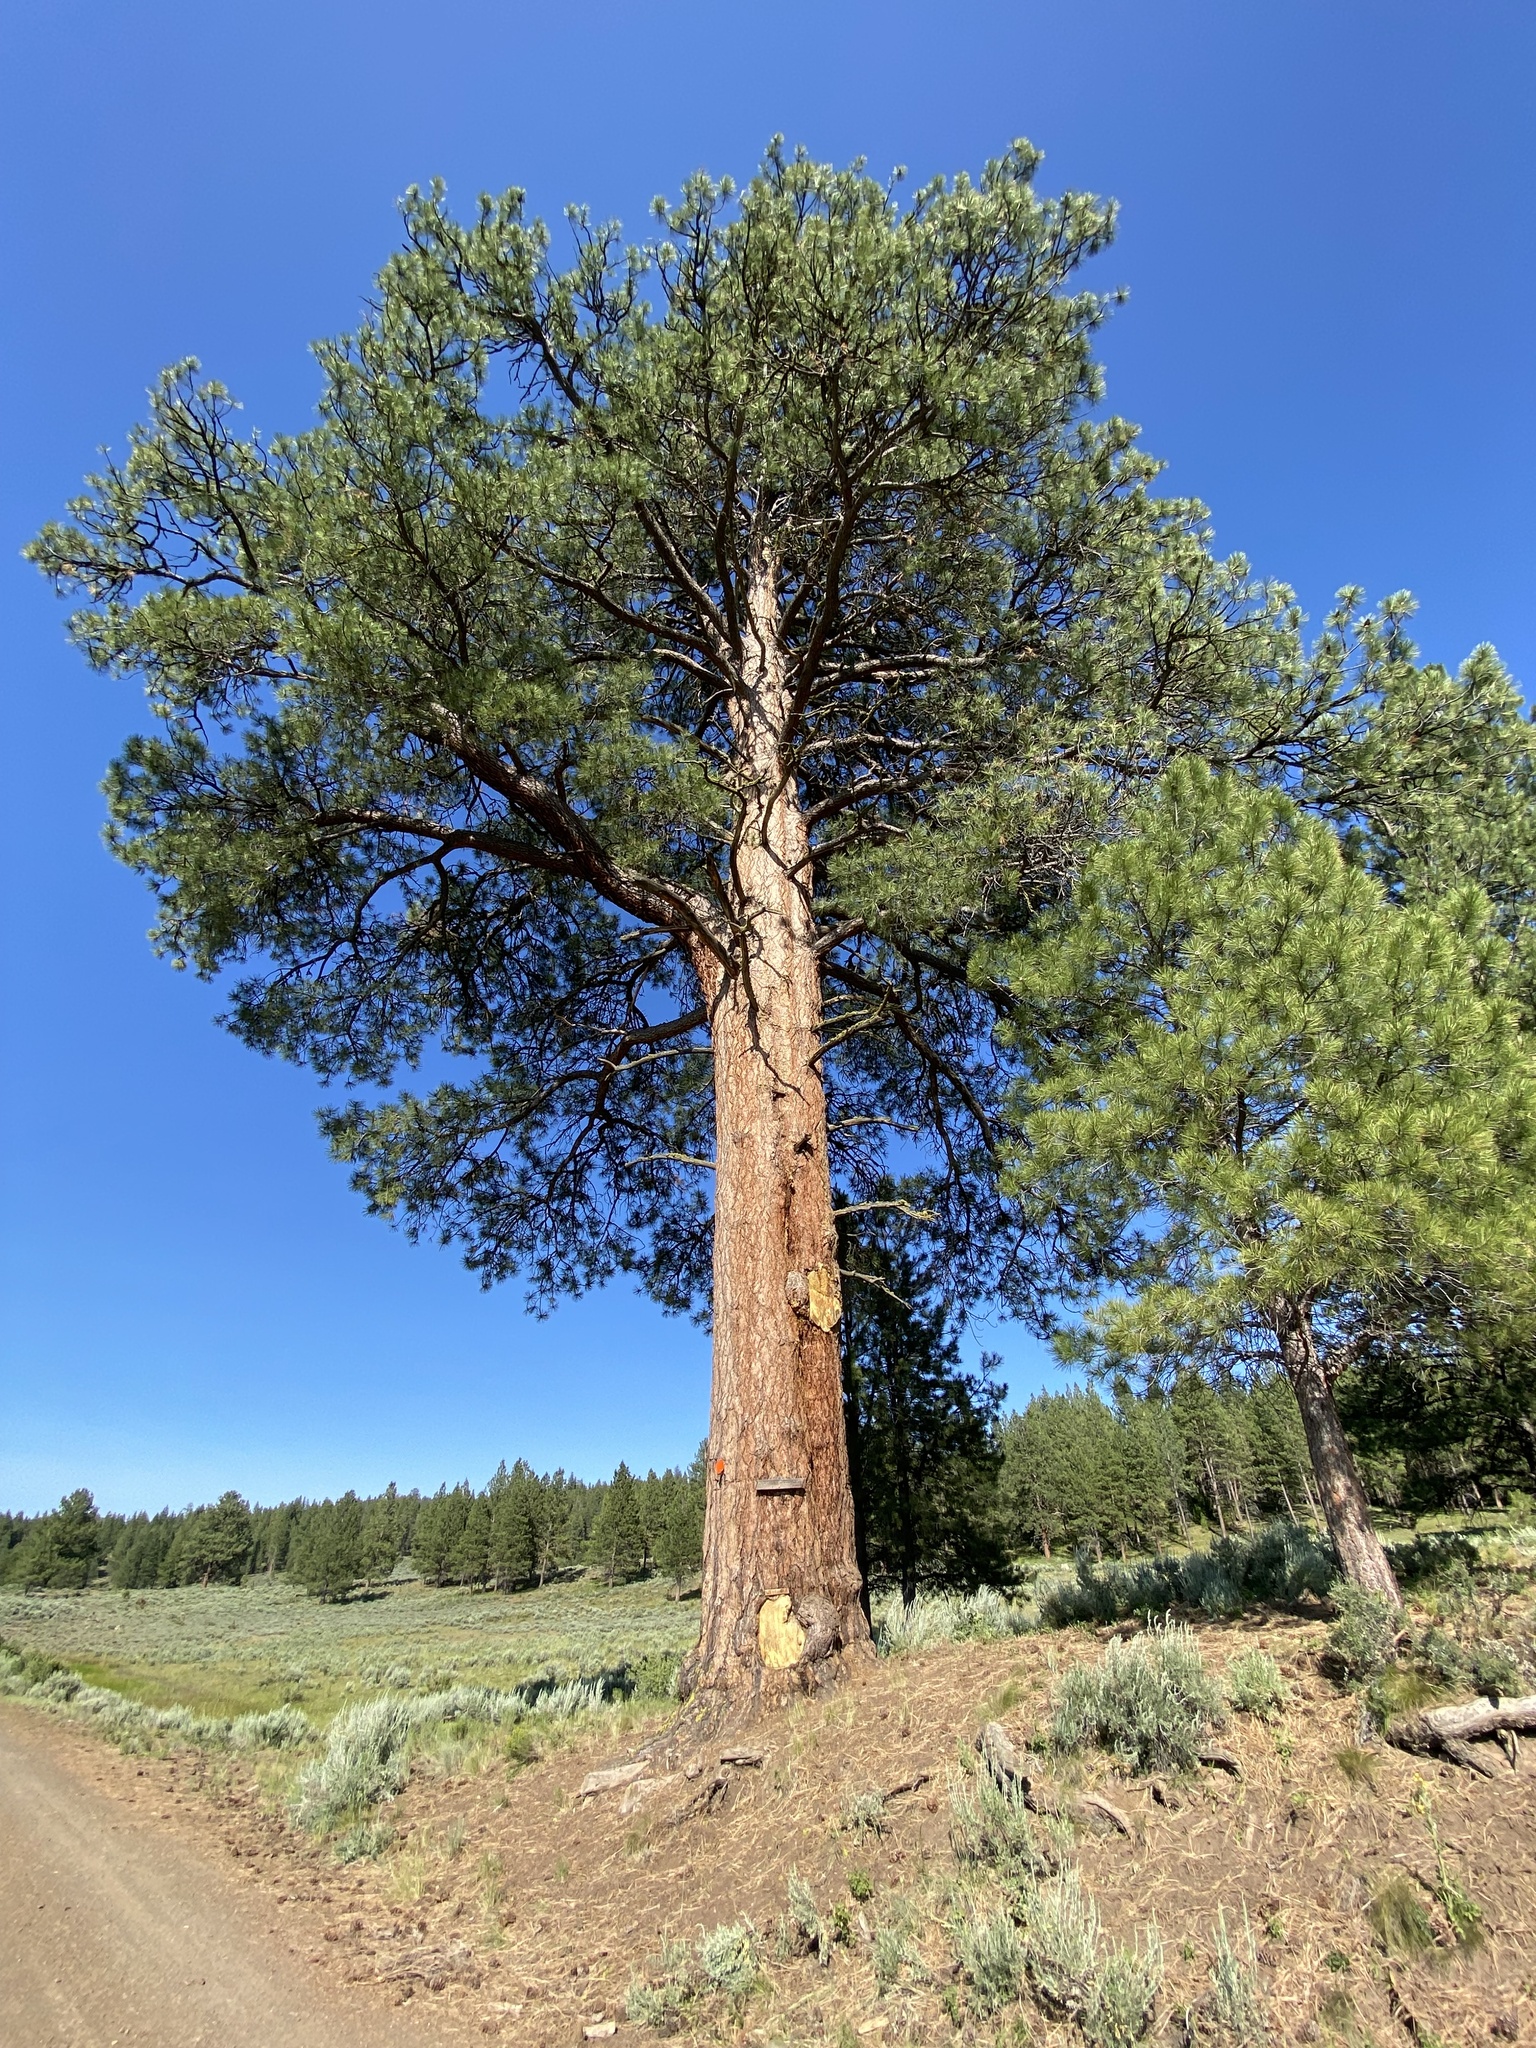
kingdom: Plantae
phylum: Tracheophyta
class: Pinopsida
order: Pinales
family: Pinaceae
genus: Pinus
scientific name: Pinus ponderosa
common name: Western yellow-pine
